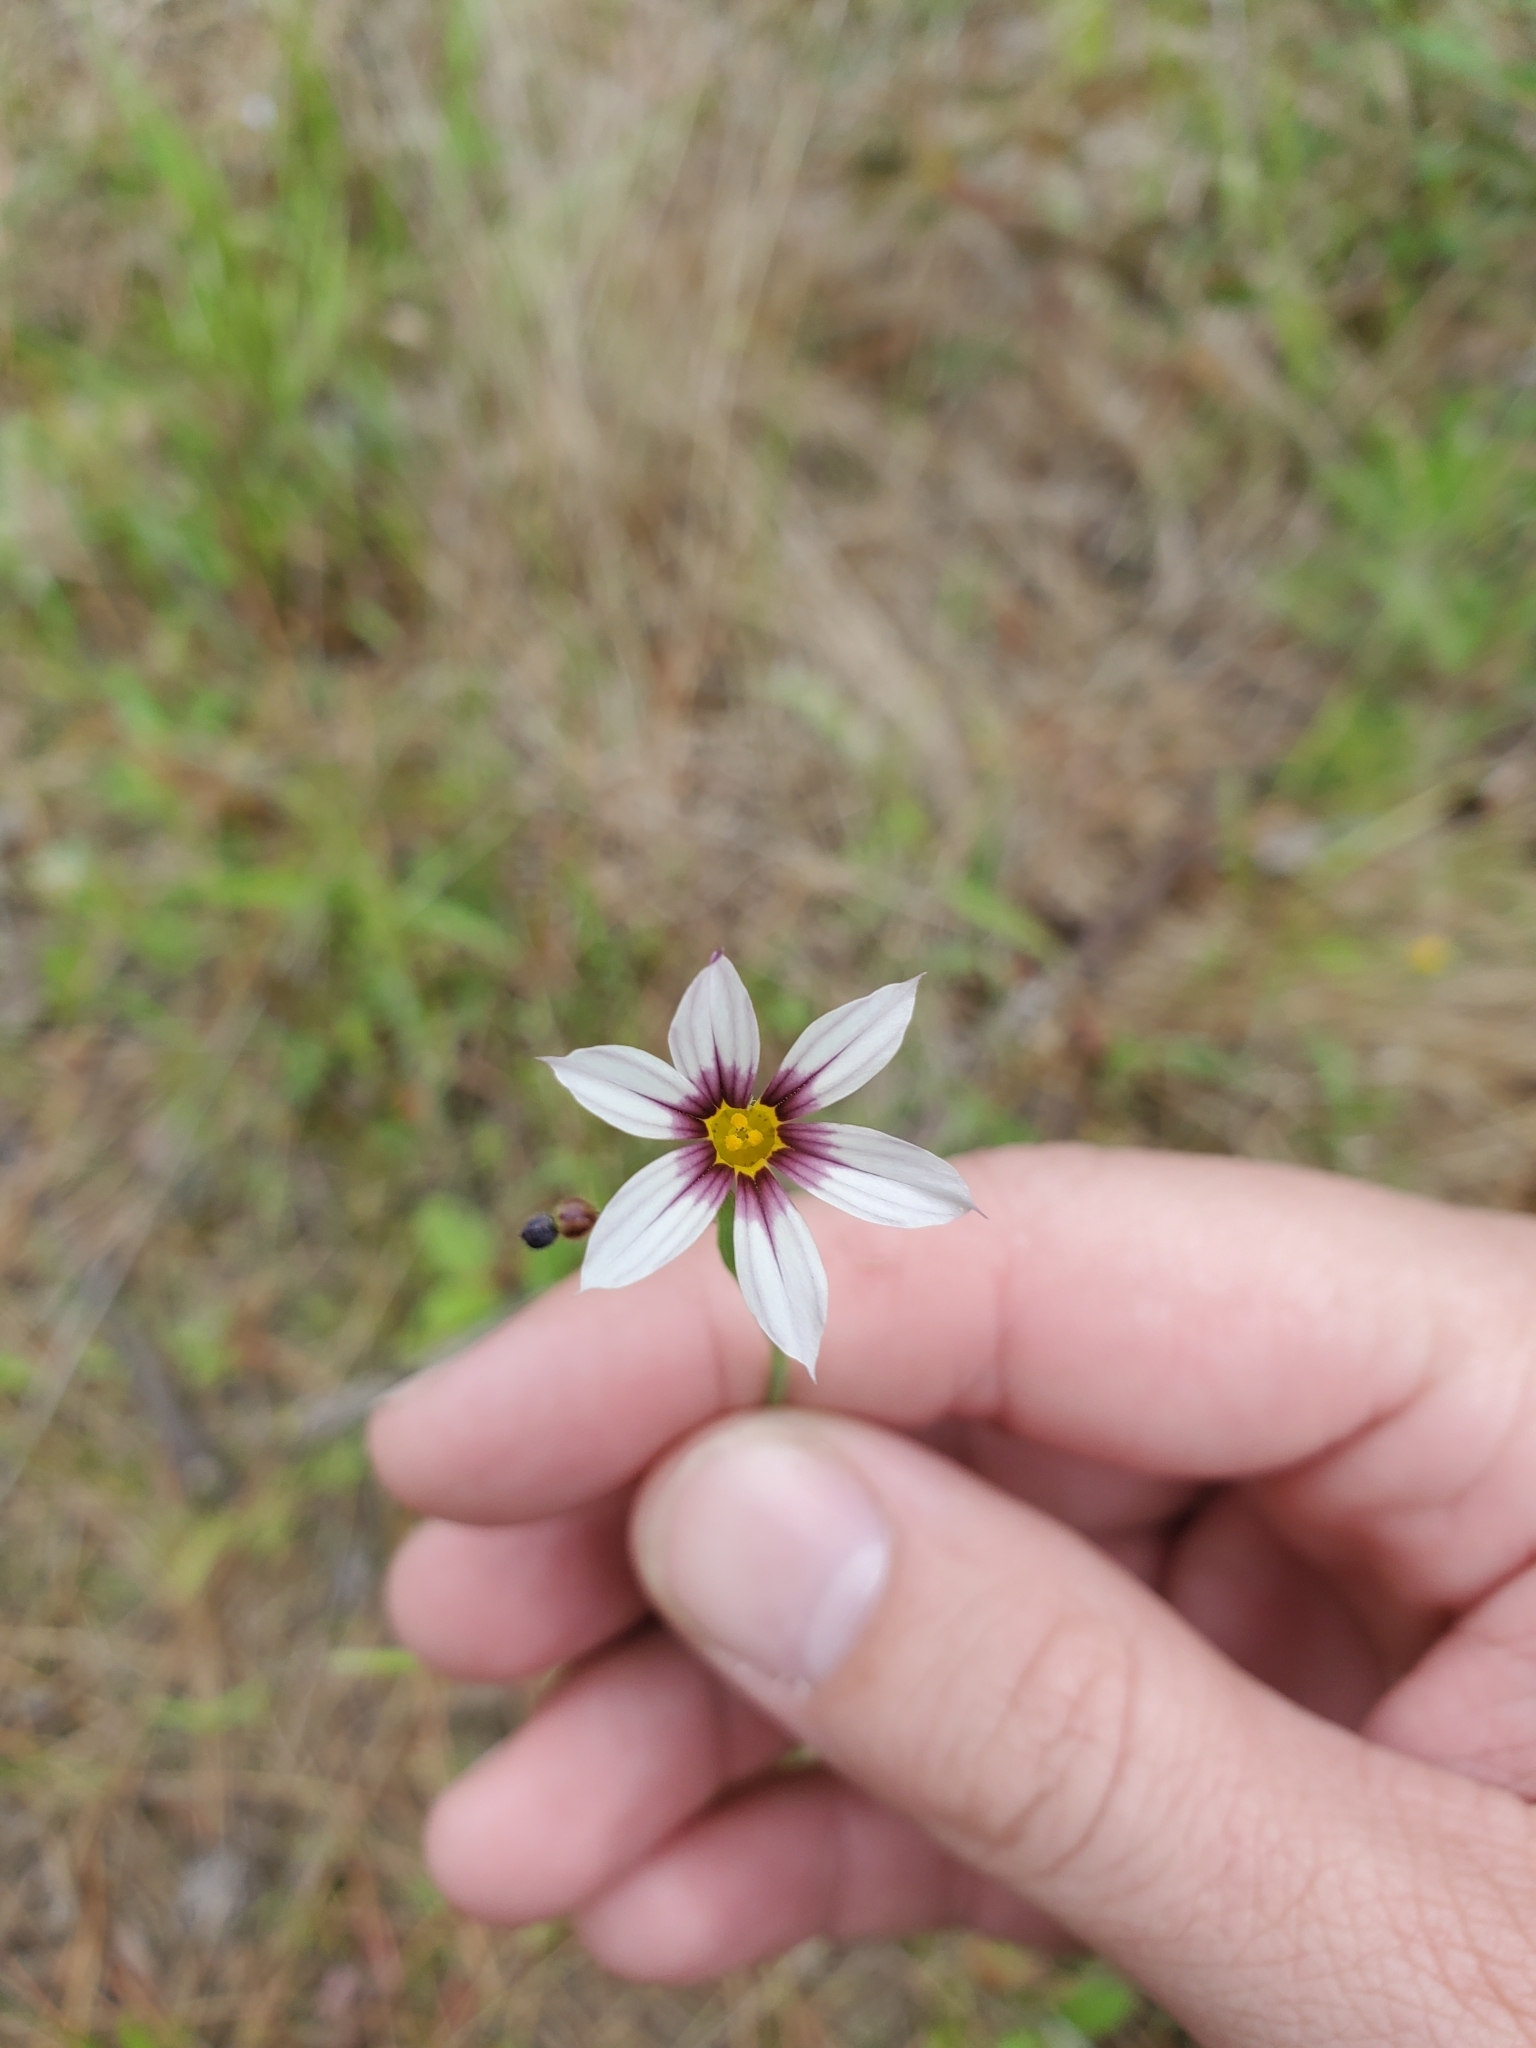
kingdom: Plantae
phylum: Tracheophyta
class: Liliopsida
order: Asparagales
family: Iridaceae
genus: Sisyrinchium
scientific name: Sisyrinchium micranthum
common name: Bermuda pigroot
